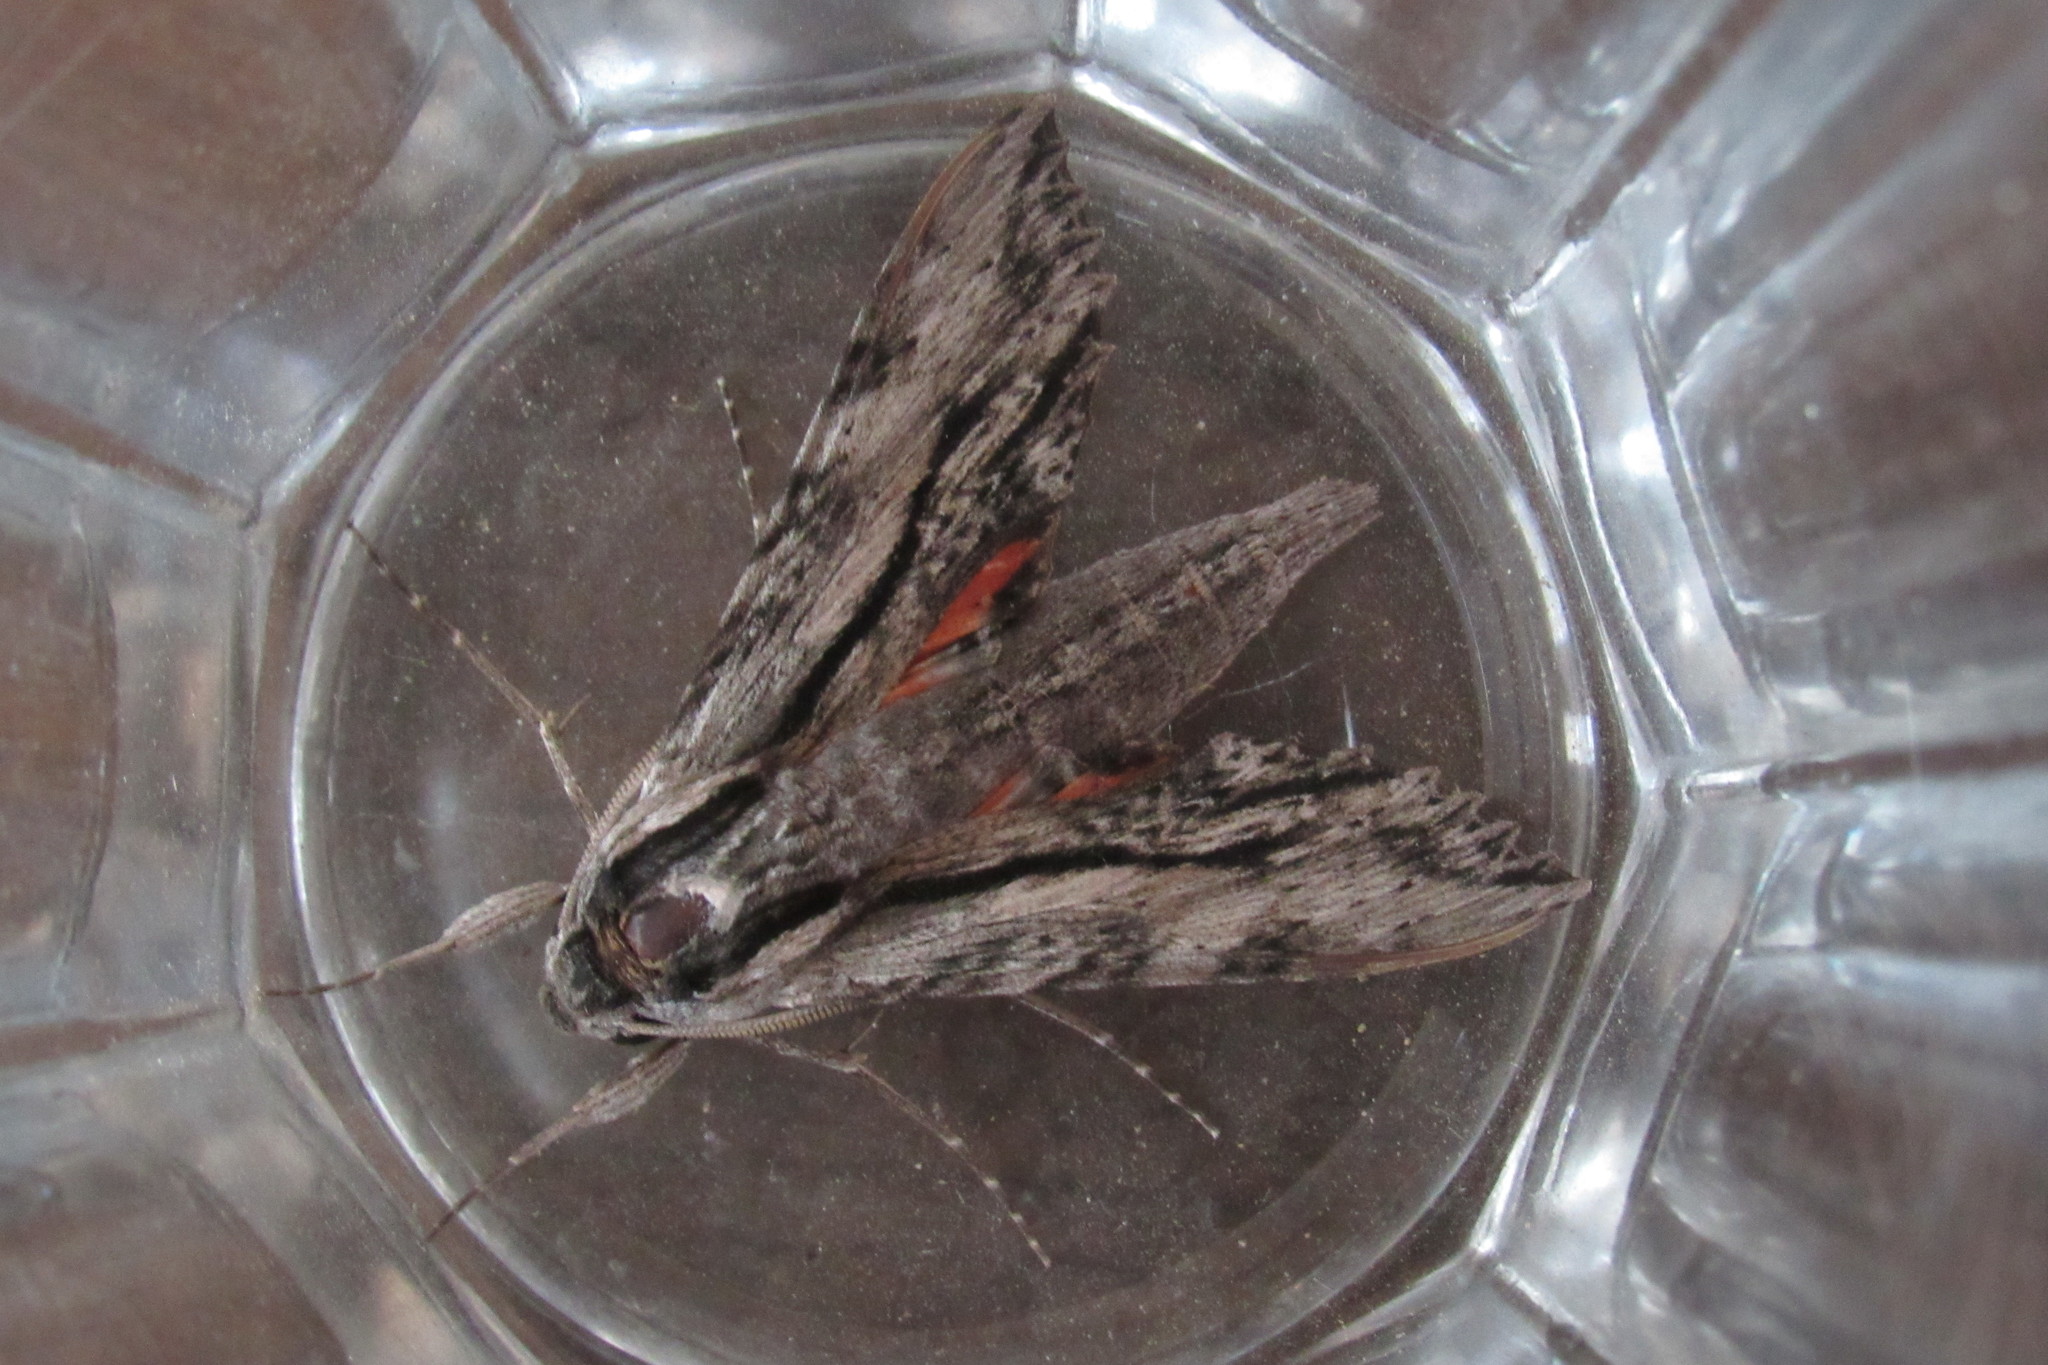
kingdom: Animalia
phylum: Arthropoda
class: Insecta
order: Lepidoptera
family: Sphingidae
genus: Erinnyis
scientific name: Erinnyis obscura
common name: Obscure sphinx
